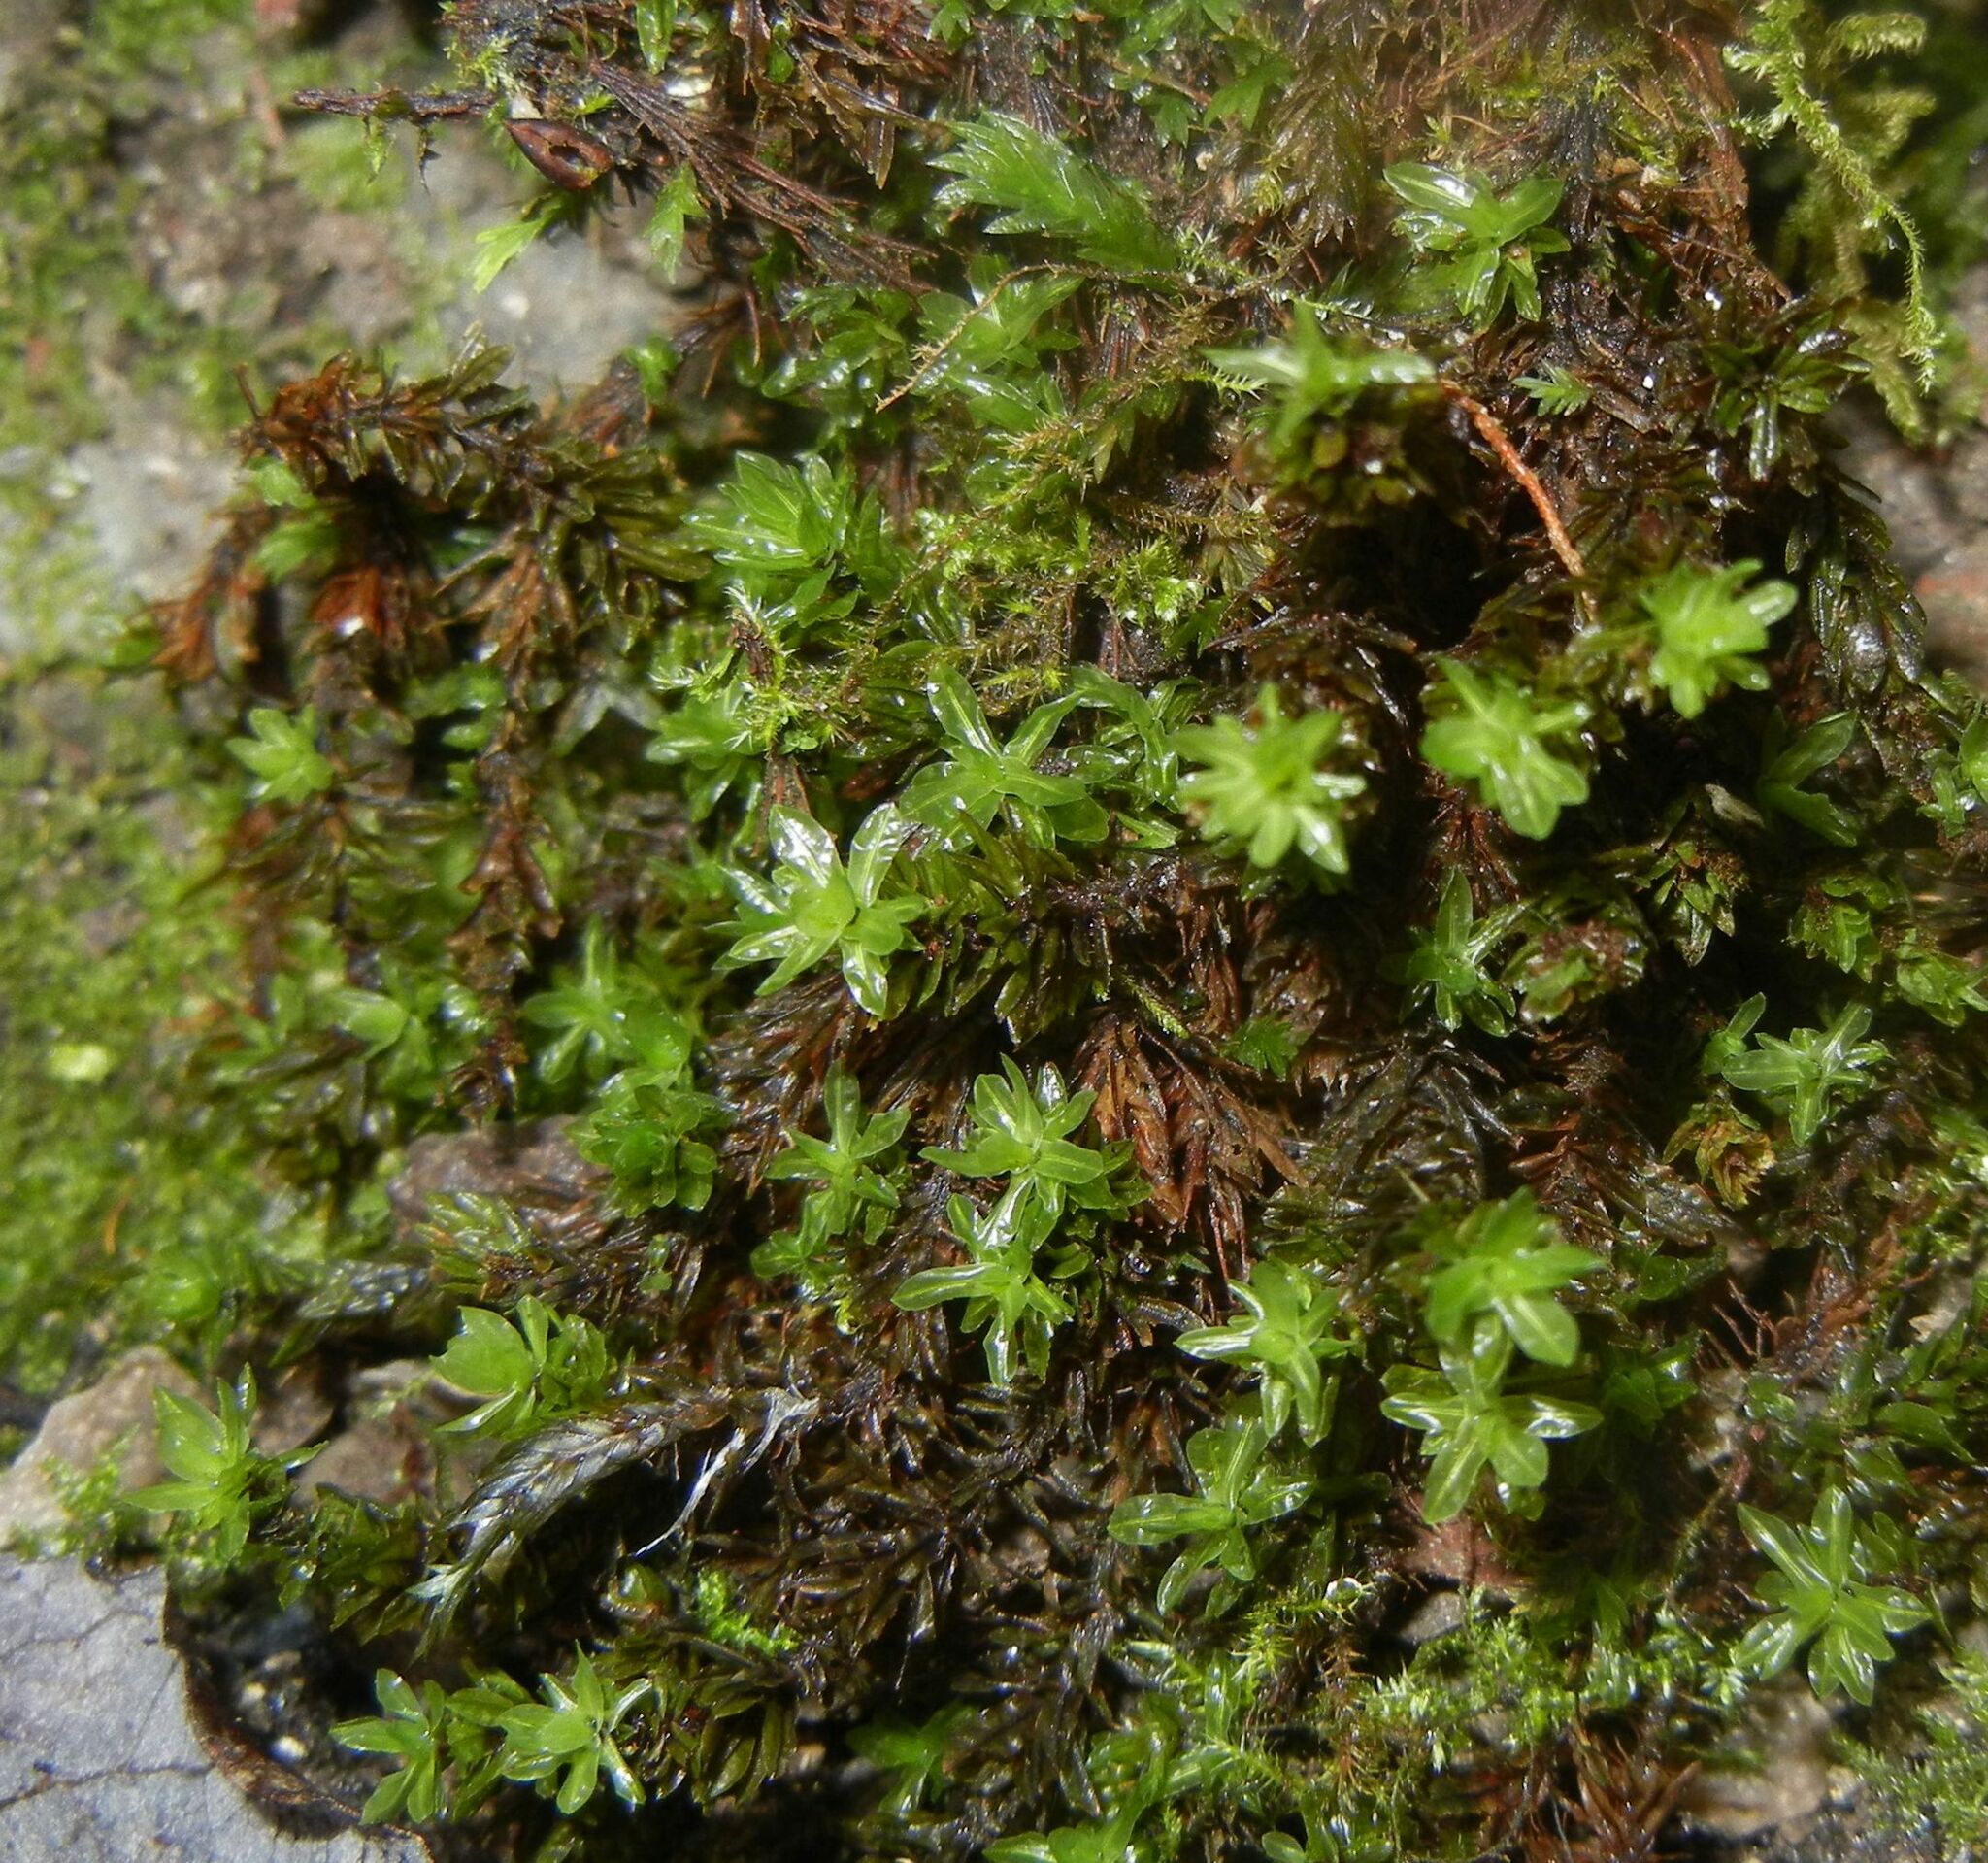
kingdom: Plantae
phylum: Bryophyta
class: Bryopsida
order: Encalyptales
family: Encalyptaceae
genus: Encalypta
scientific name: Encalypta streptocarpa
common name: Spiral extinguisher-moss
